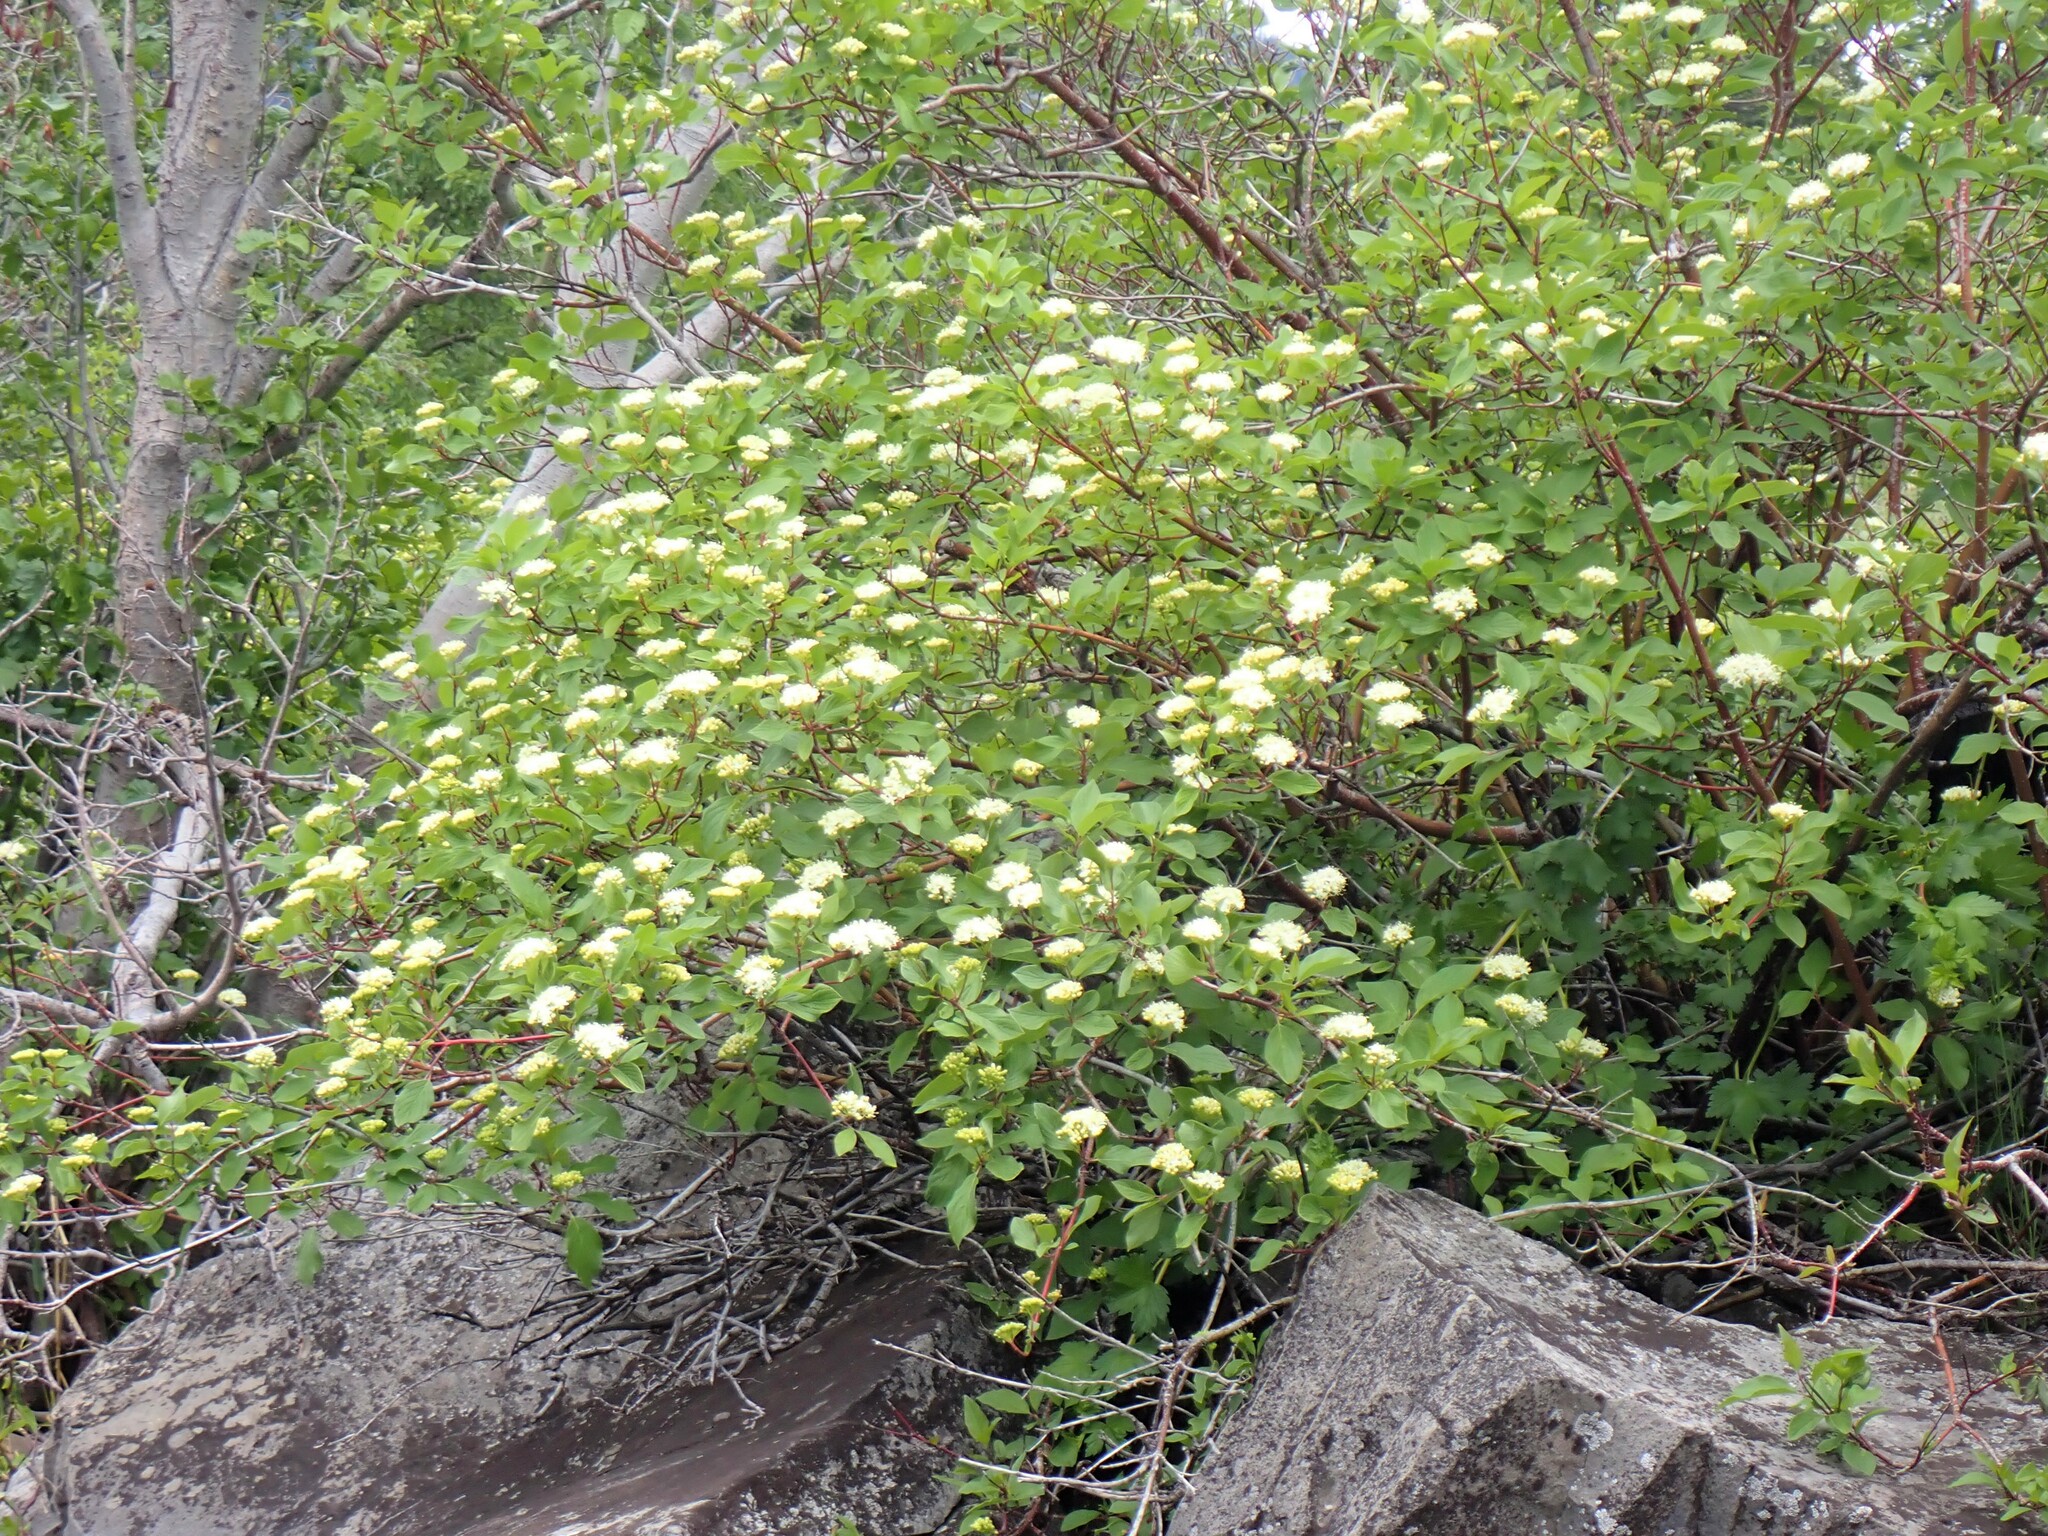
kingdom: Plantae
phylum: Tracheophyta
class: Magnoliopsida
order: Cornales
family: Cornaceae
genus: Cornus
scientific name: Cornus sericea
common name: Red-osier dogwood
